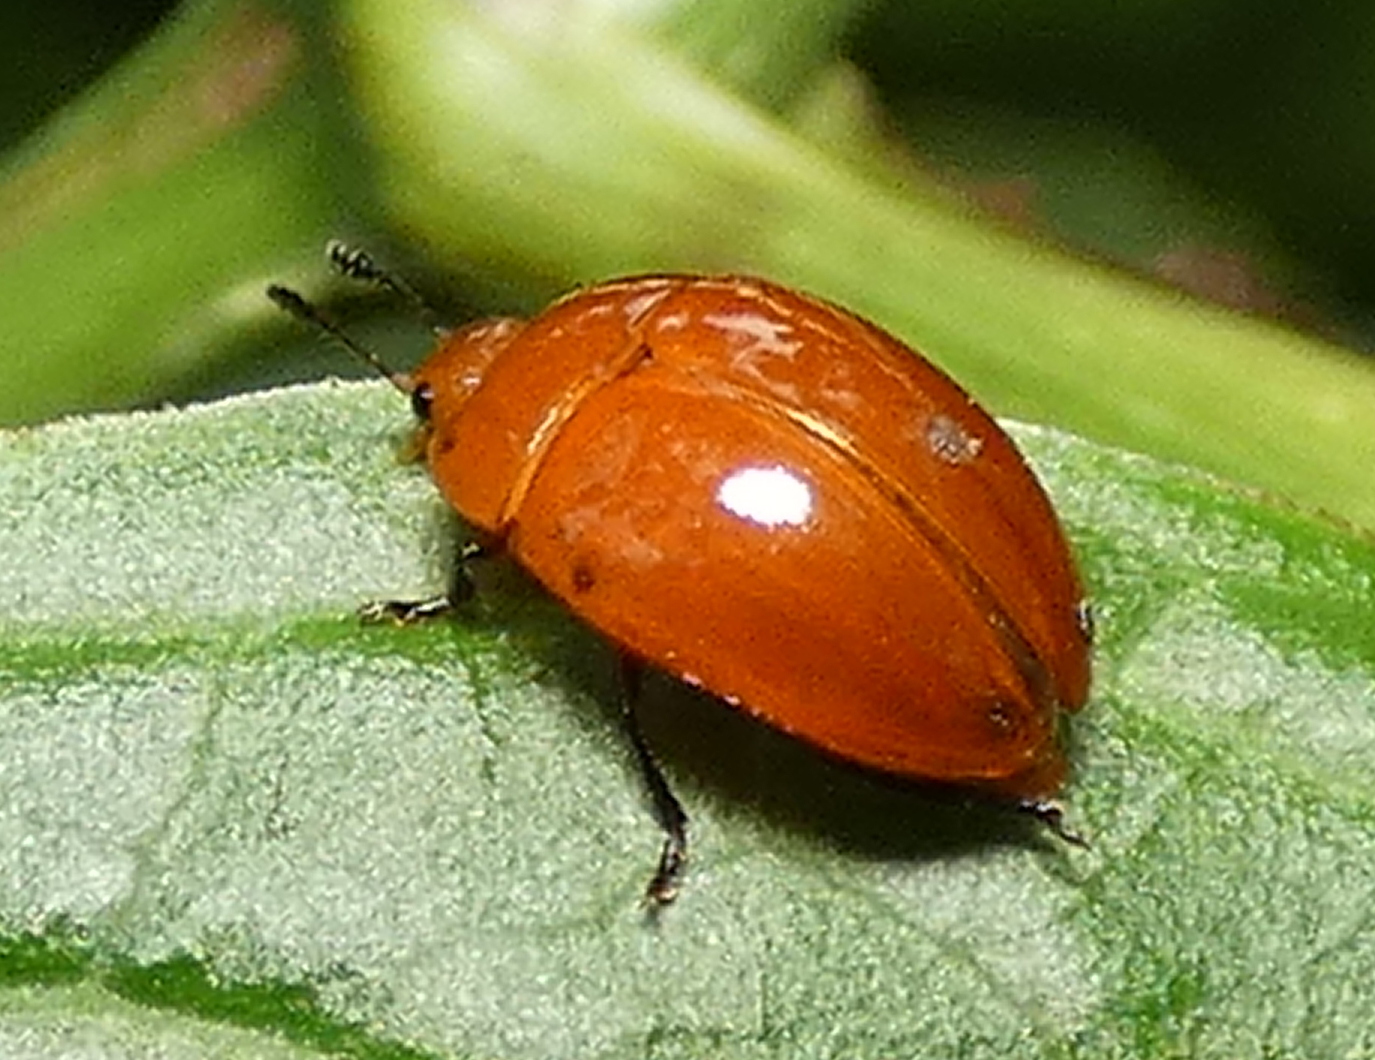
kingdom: Animalia
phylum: Arthropoda
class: Insecta
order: Coleoptera
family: Erotylidae
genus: Iphiclus
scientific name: Iphiclus
